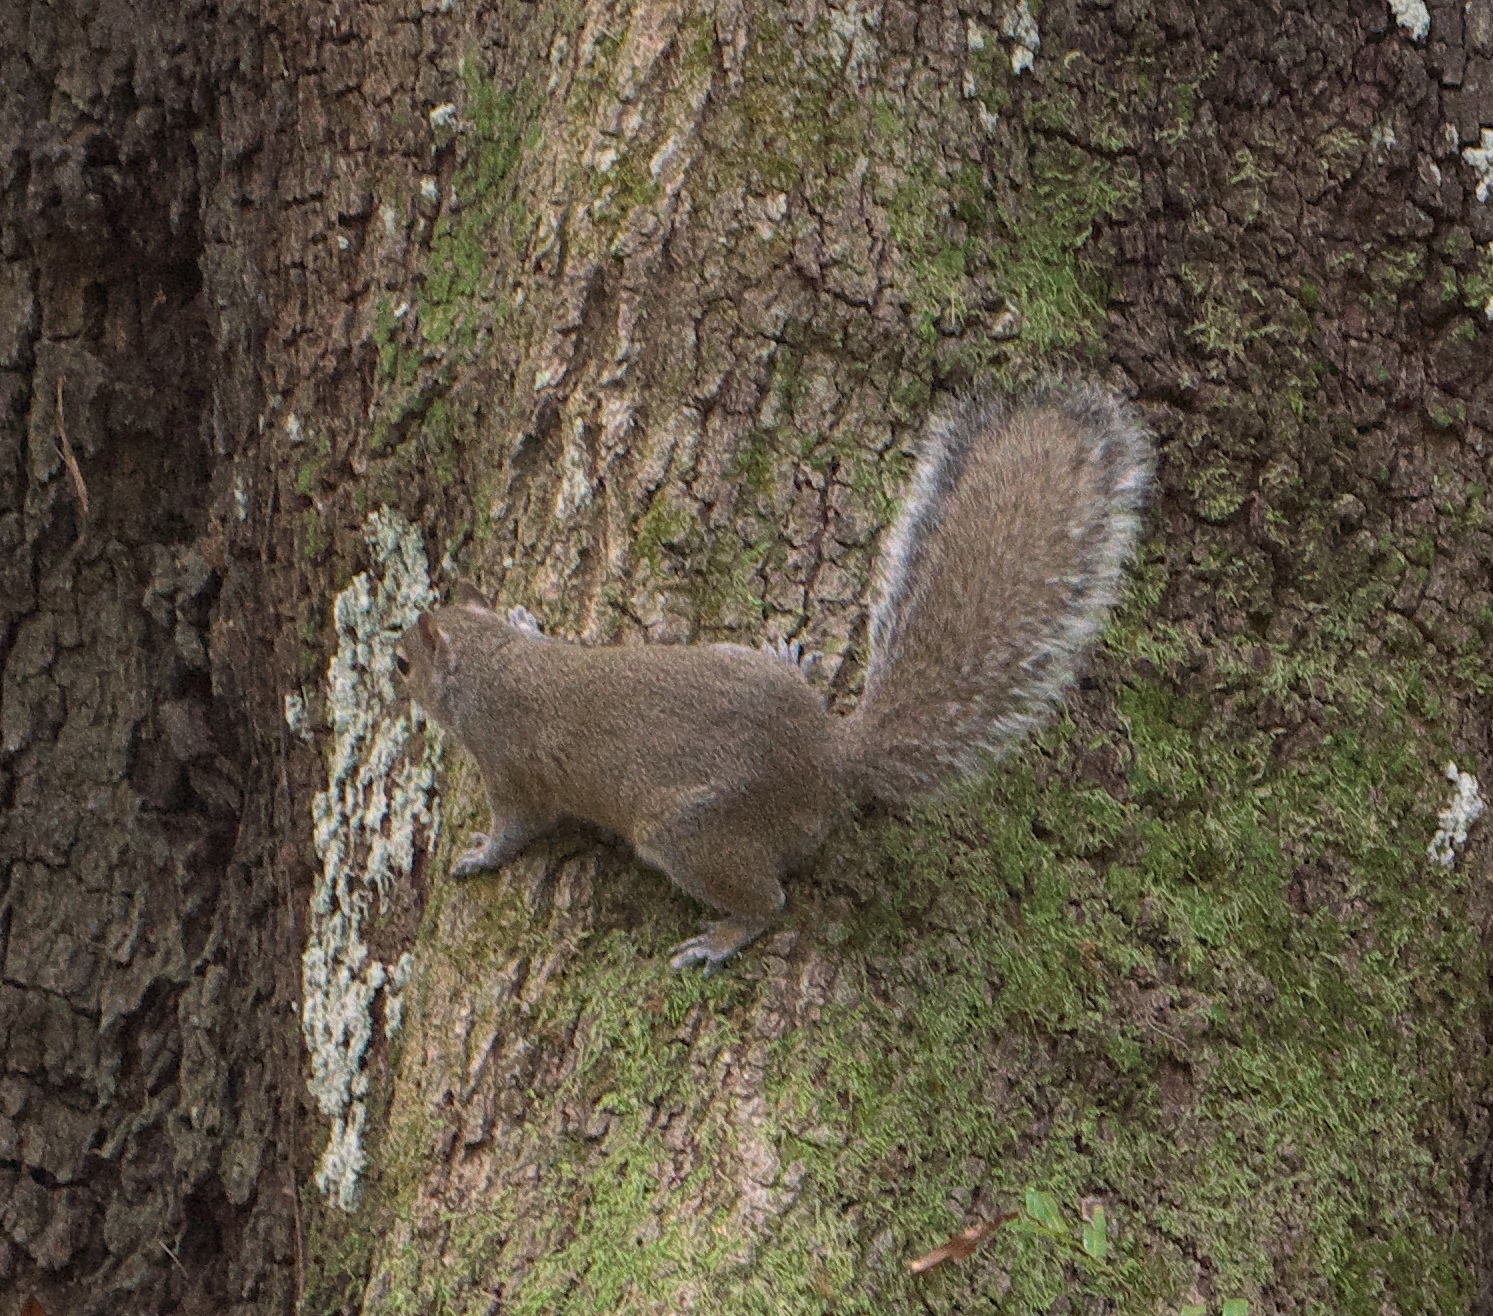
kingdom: Animalia
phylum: Chordata
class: Mammalia
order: Rodentia
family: Sciuridae
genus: Sciurus
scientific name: Sciurus carolinensis
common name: Eastern gray squirrel
